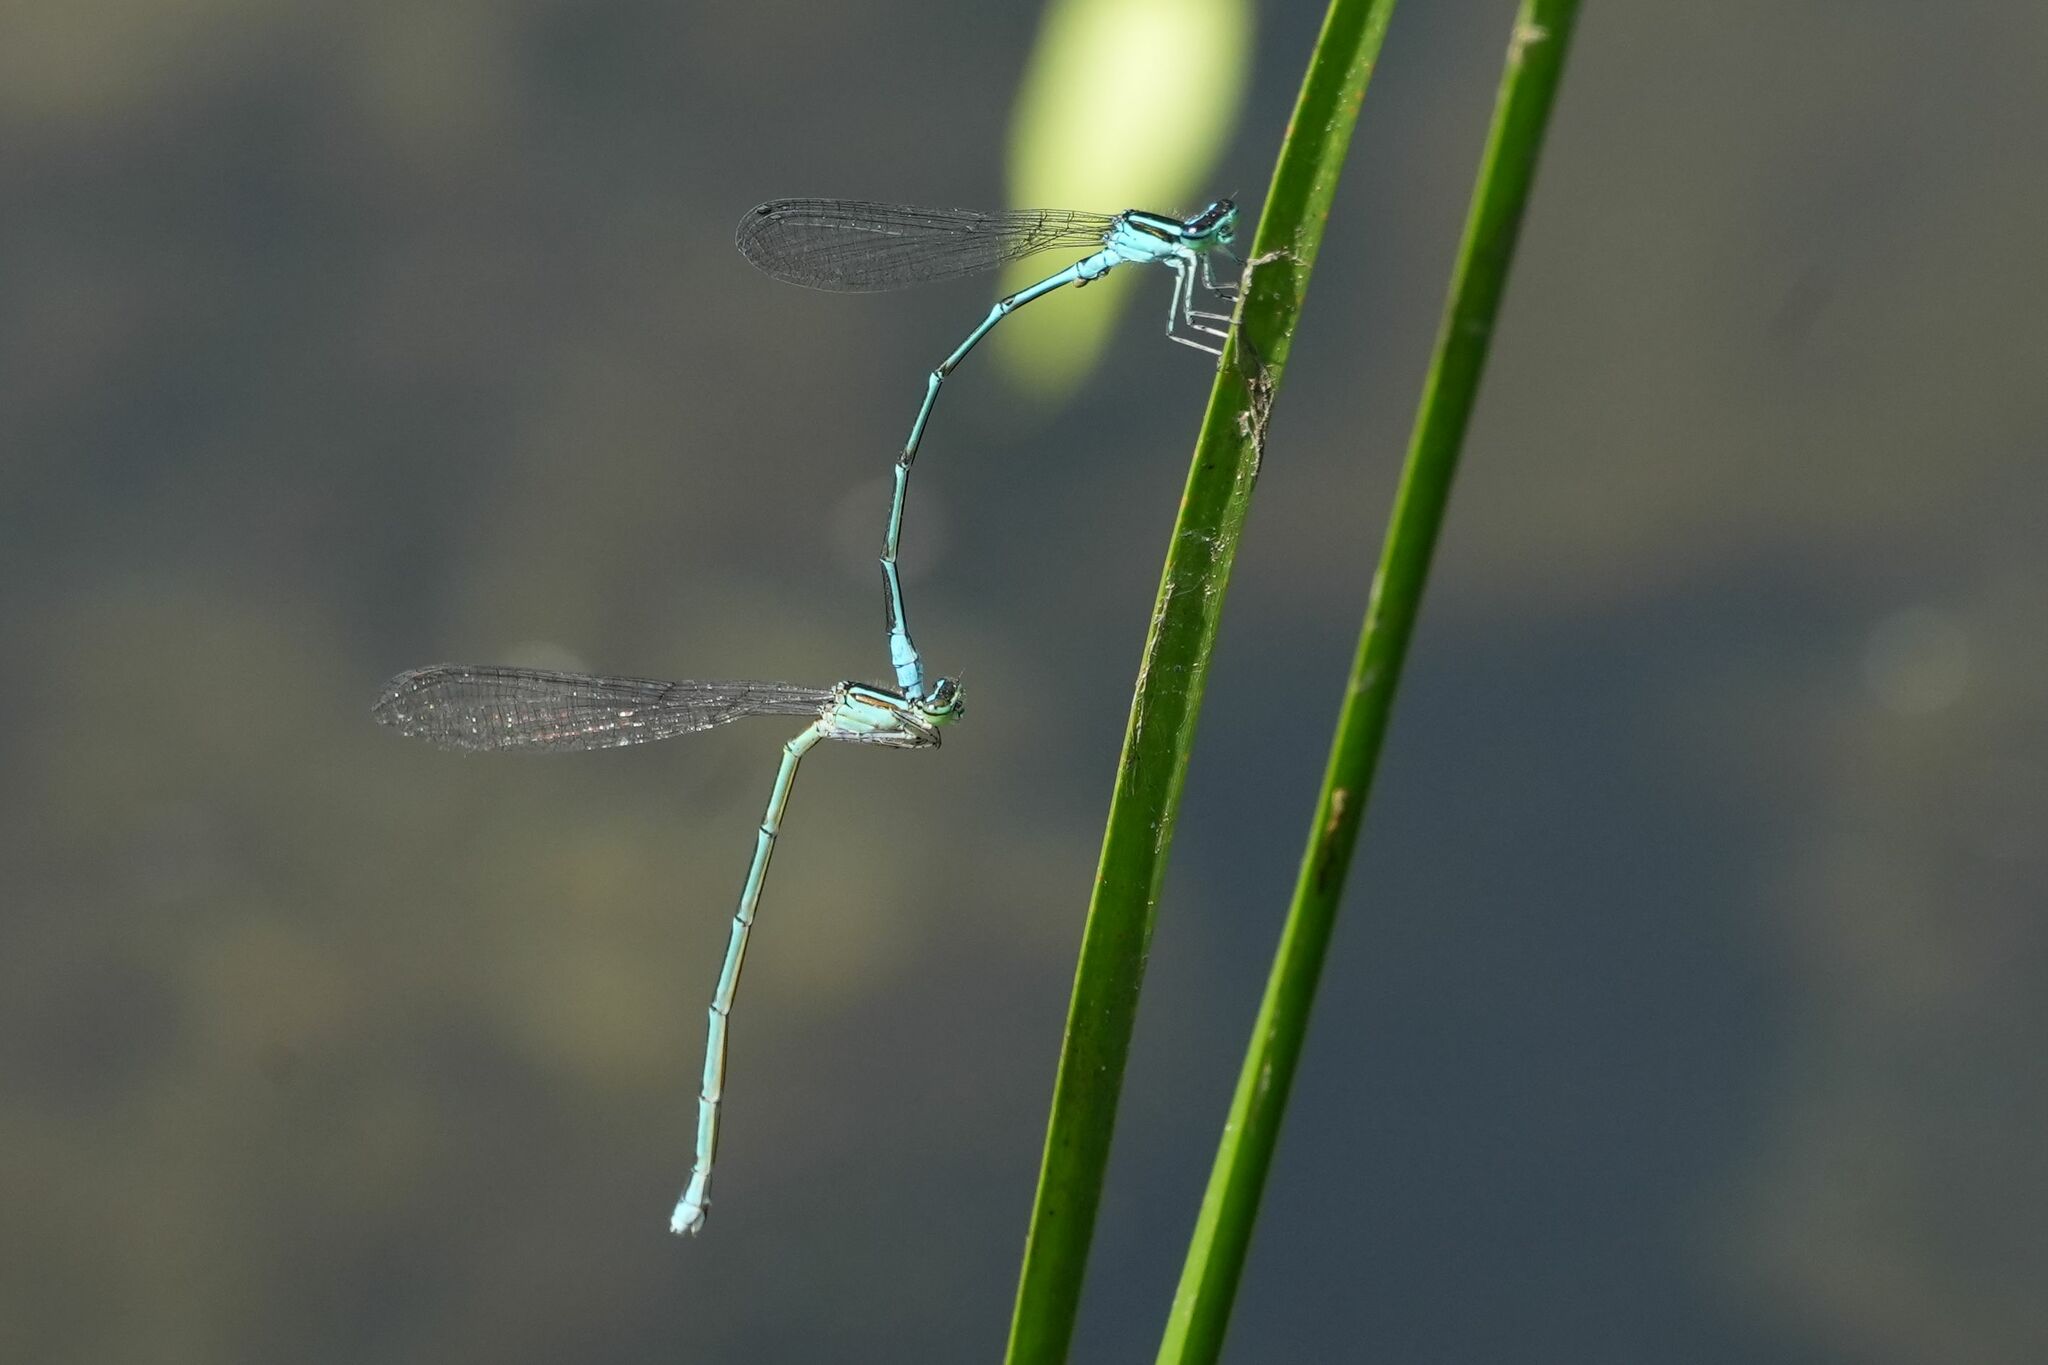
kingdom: Animalia
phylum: Arthropoda
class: Insecta
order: Odonata
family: Coenagrionidae
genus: Enallagma
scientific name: Enallagma exsulans
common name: Stream bluet
